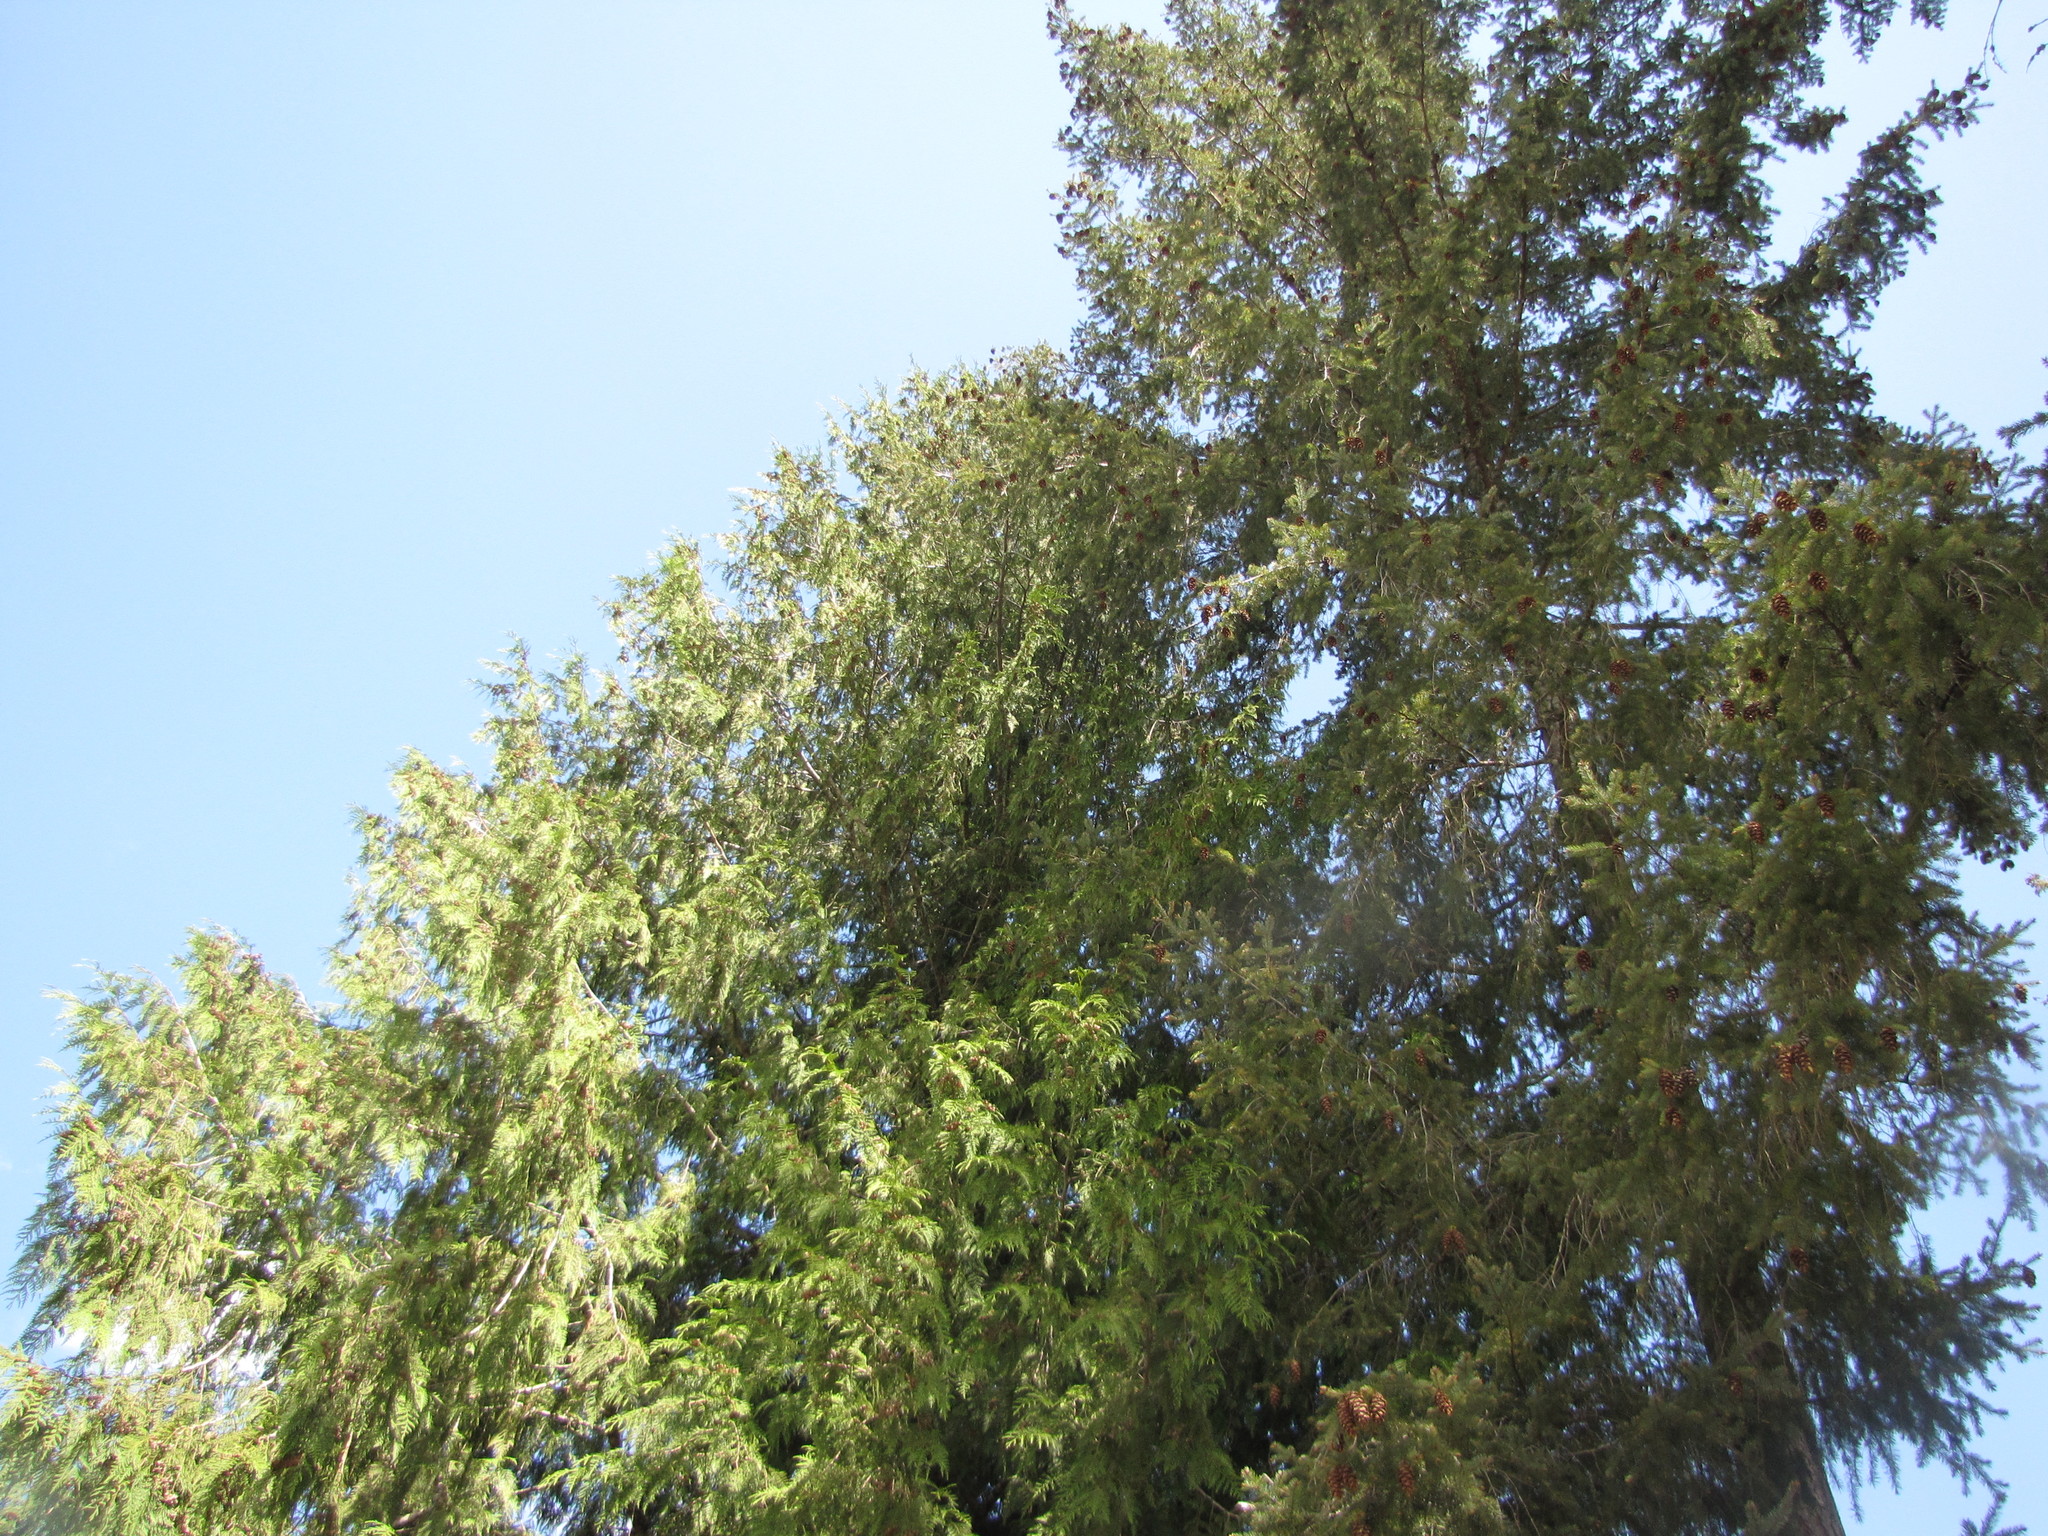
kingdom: Plantae
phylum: Tracheophyta
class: Pinopsida
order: Pinales
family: Cupressaceae
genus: Thuja
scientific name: Thuja plicata
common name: Western red-cedar
